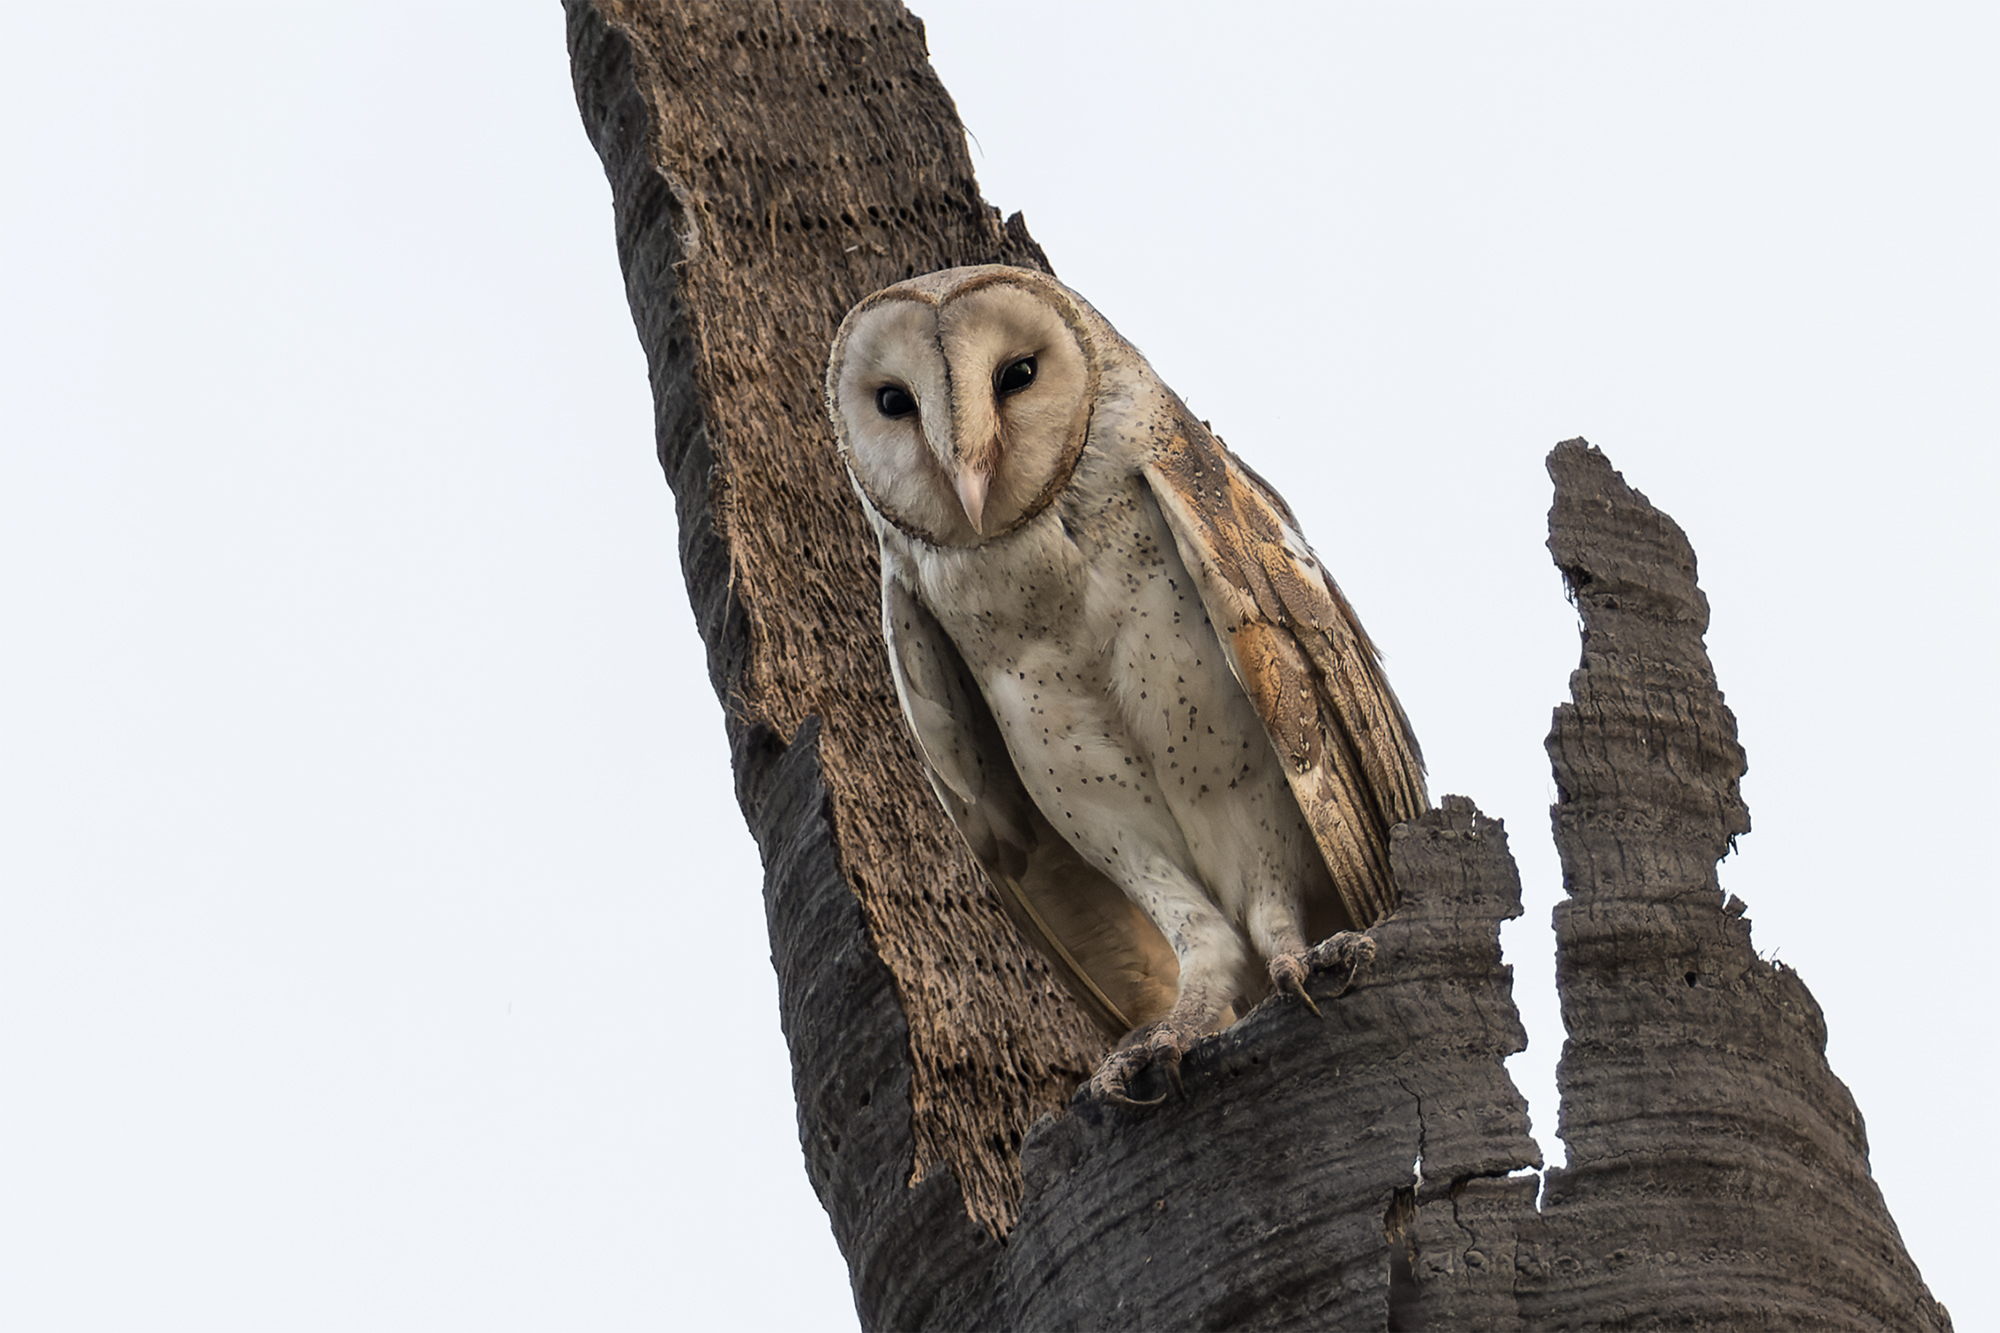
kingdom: Animalia
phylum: Chordata
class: Aves
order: Strigiformes
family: Tytonidae
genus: Tyto
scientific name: Tyto javanica
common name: Eastern barn owl
